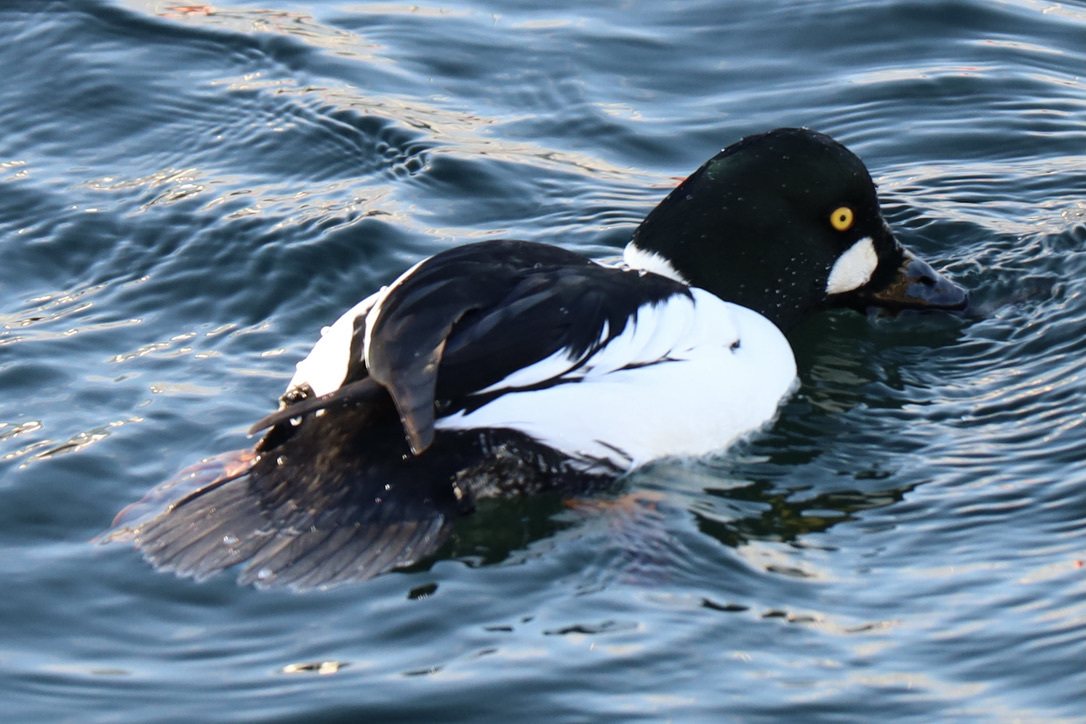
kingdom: Animalia
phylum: Chordata
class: Aves
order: Anseriformes
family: Anatidae
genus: Bucephala
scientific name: Bucephala clangula
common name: Common goldeneye
